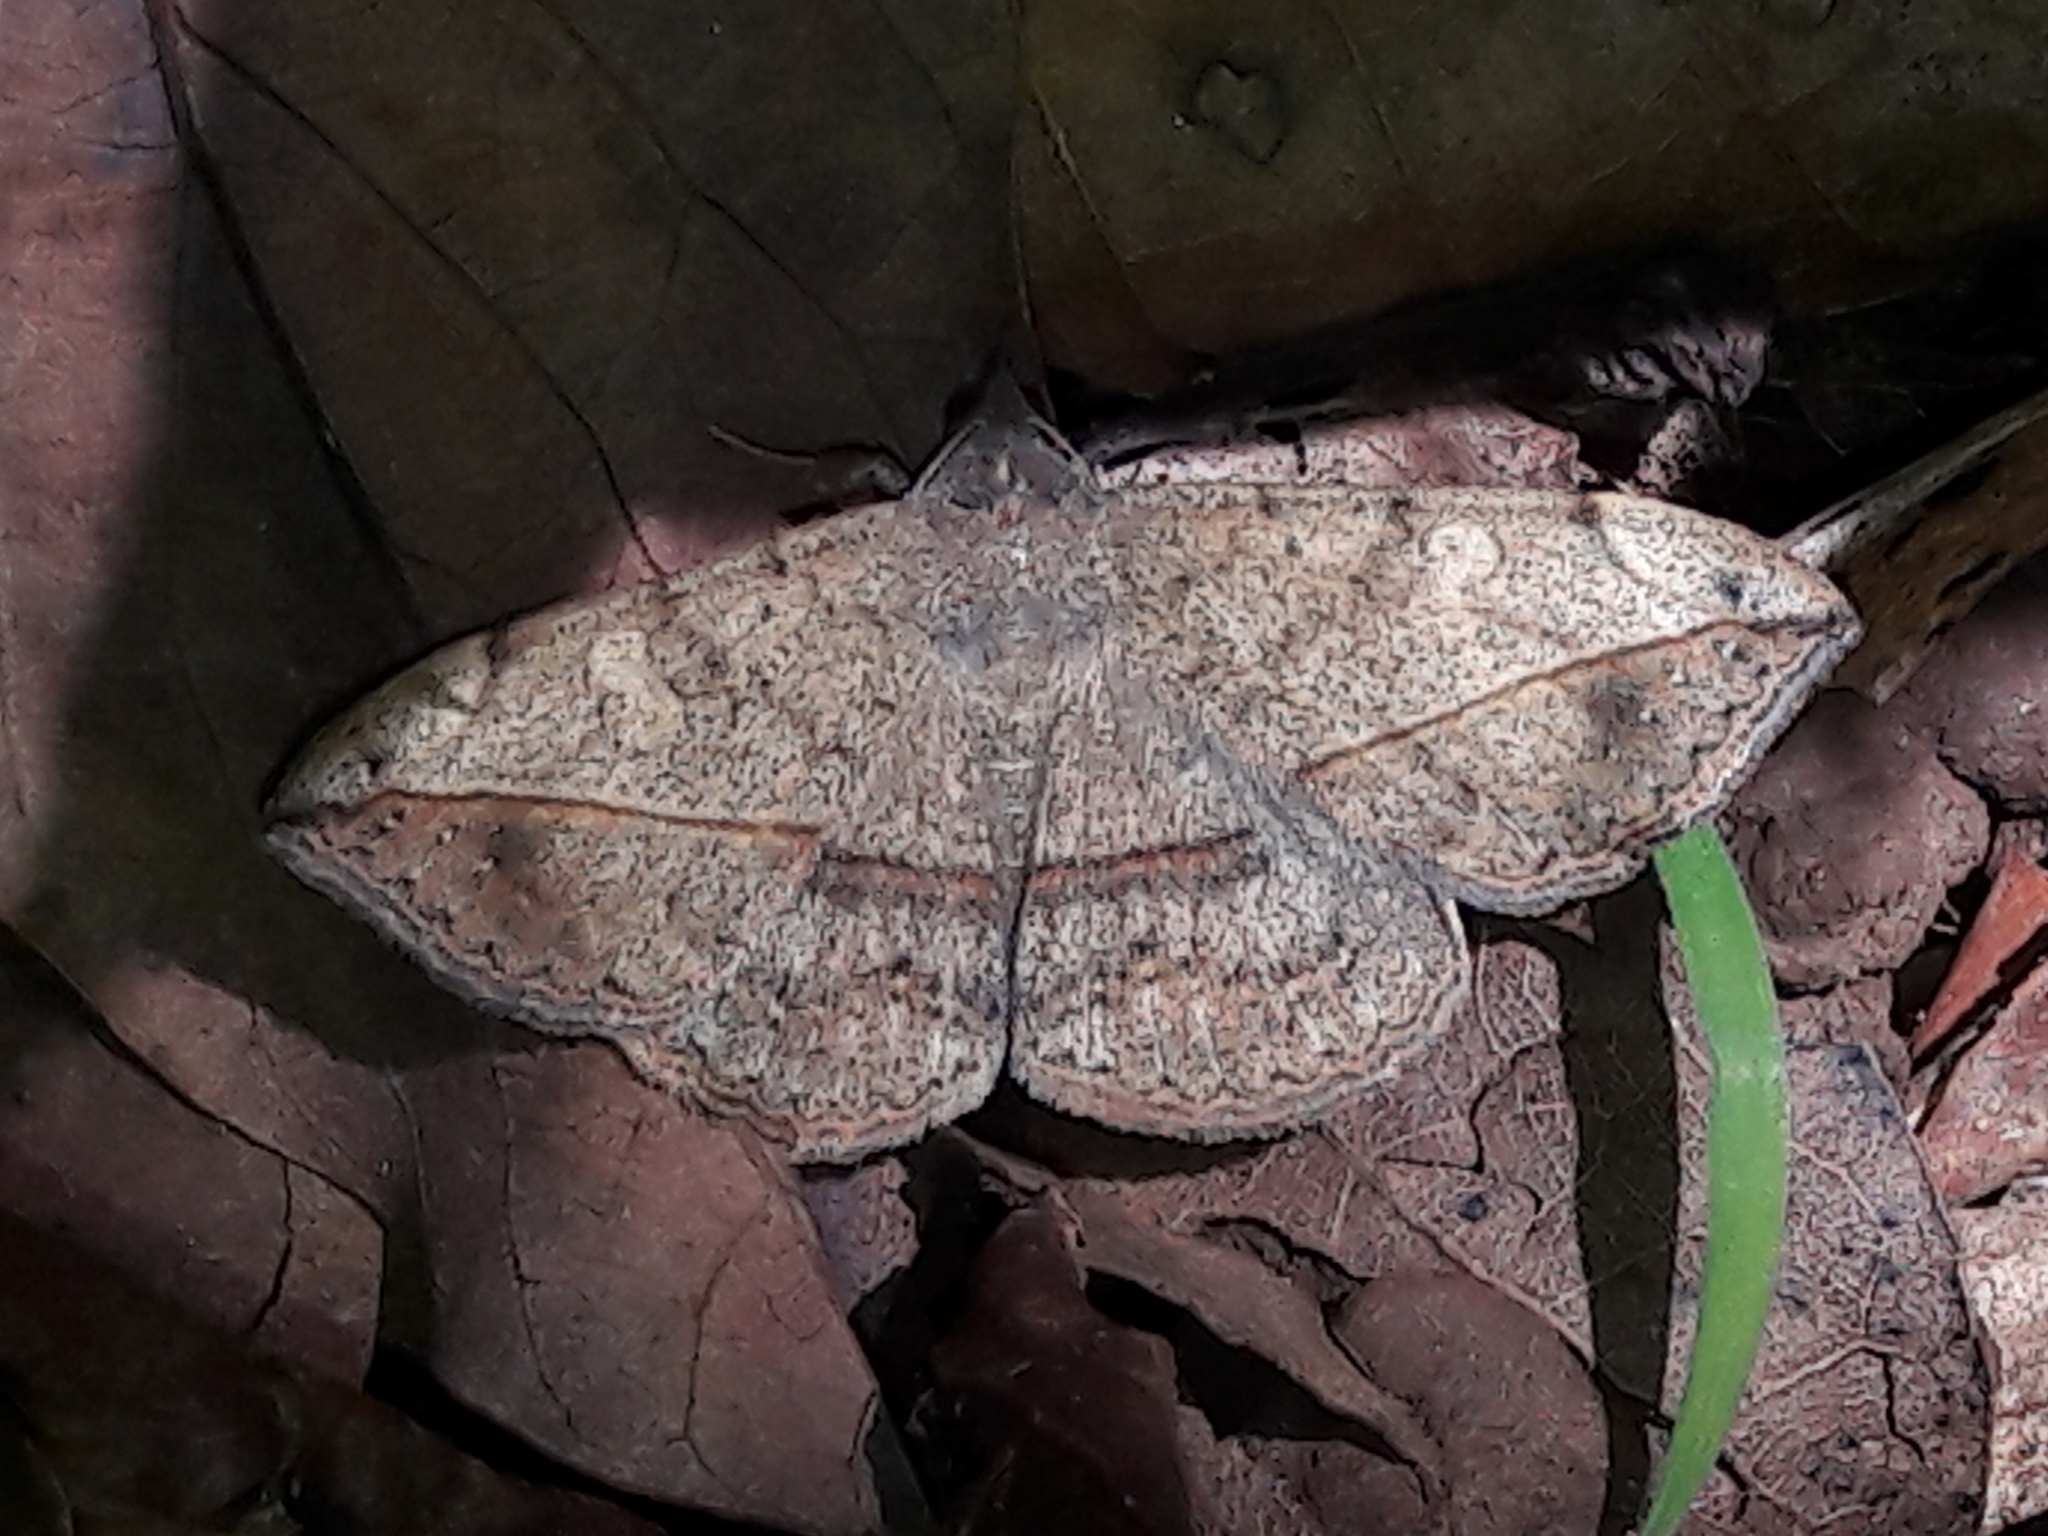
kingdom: Animalia
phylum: Arthropoda
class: Insecta
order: Lepidoptera
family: Erebidae
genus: Anticarsia
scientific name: Anticarsia gemmatalis
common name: Cutworm moth
